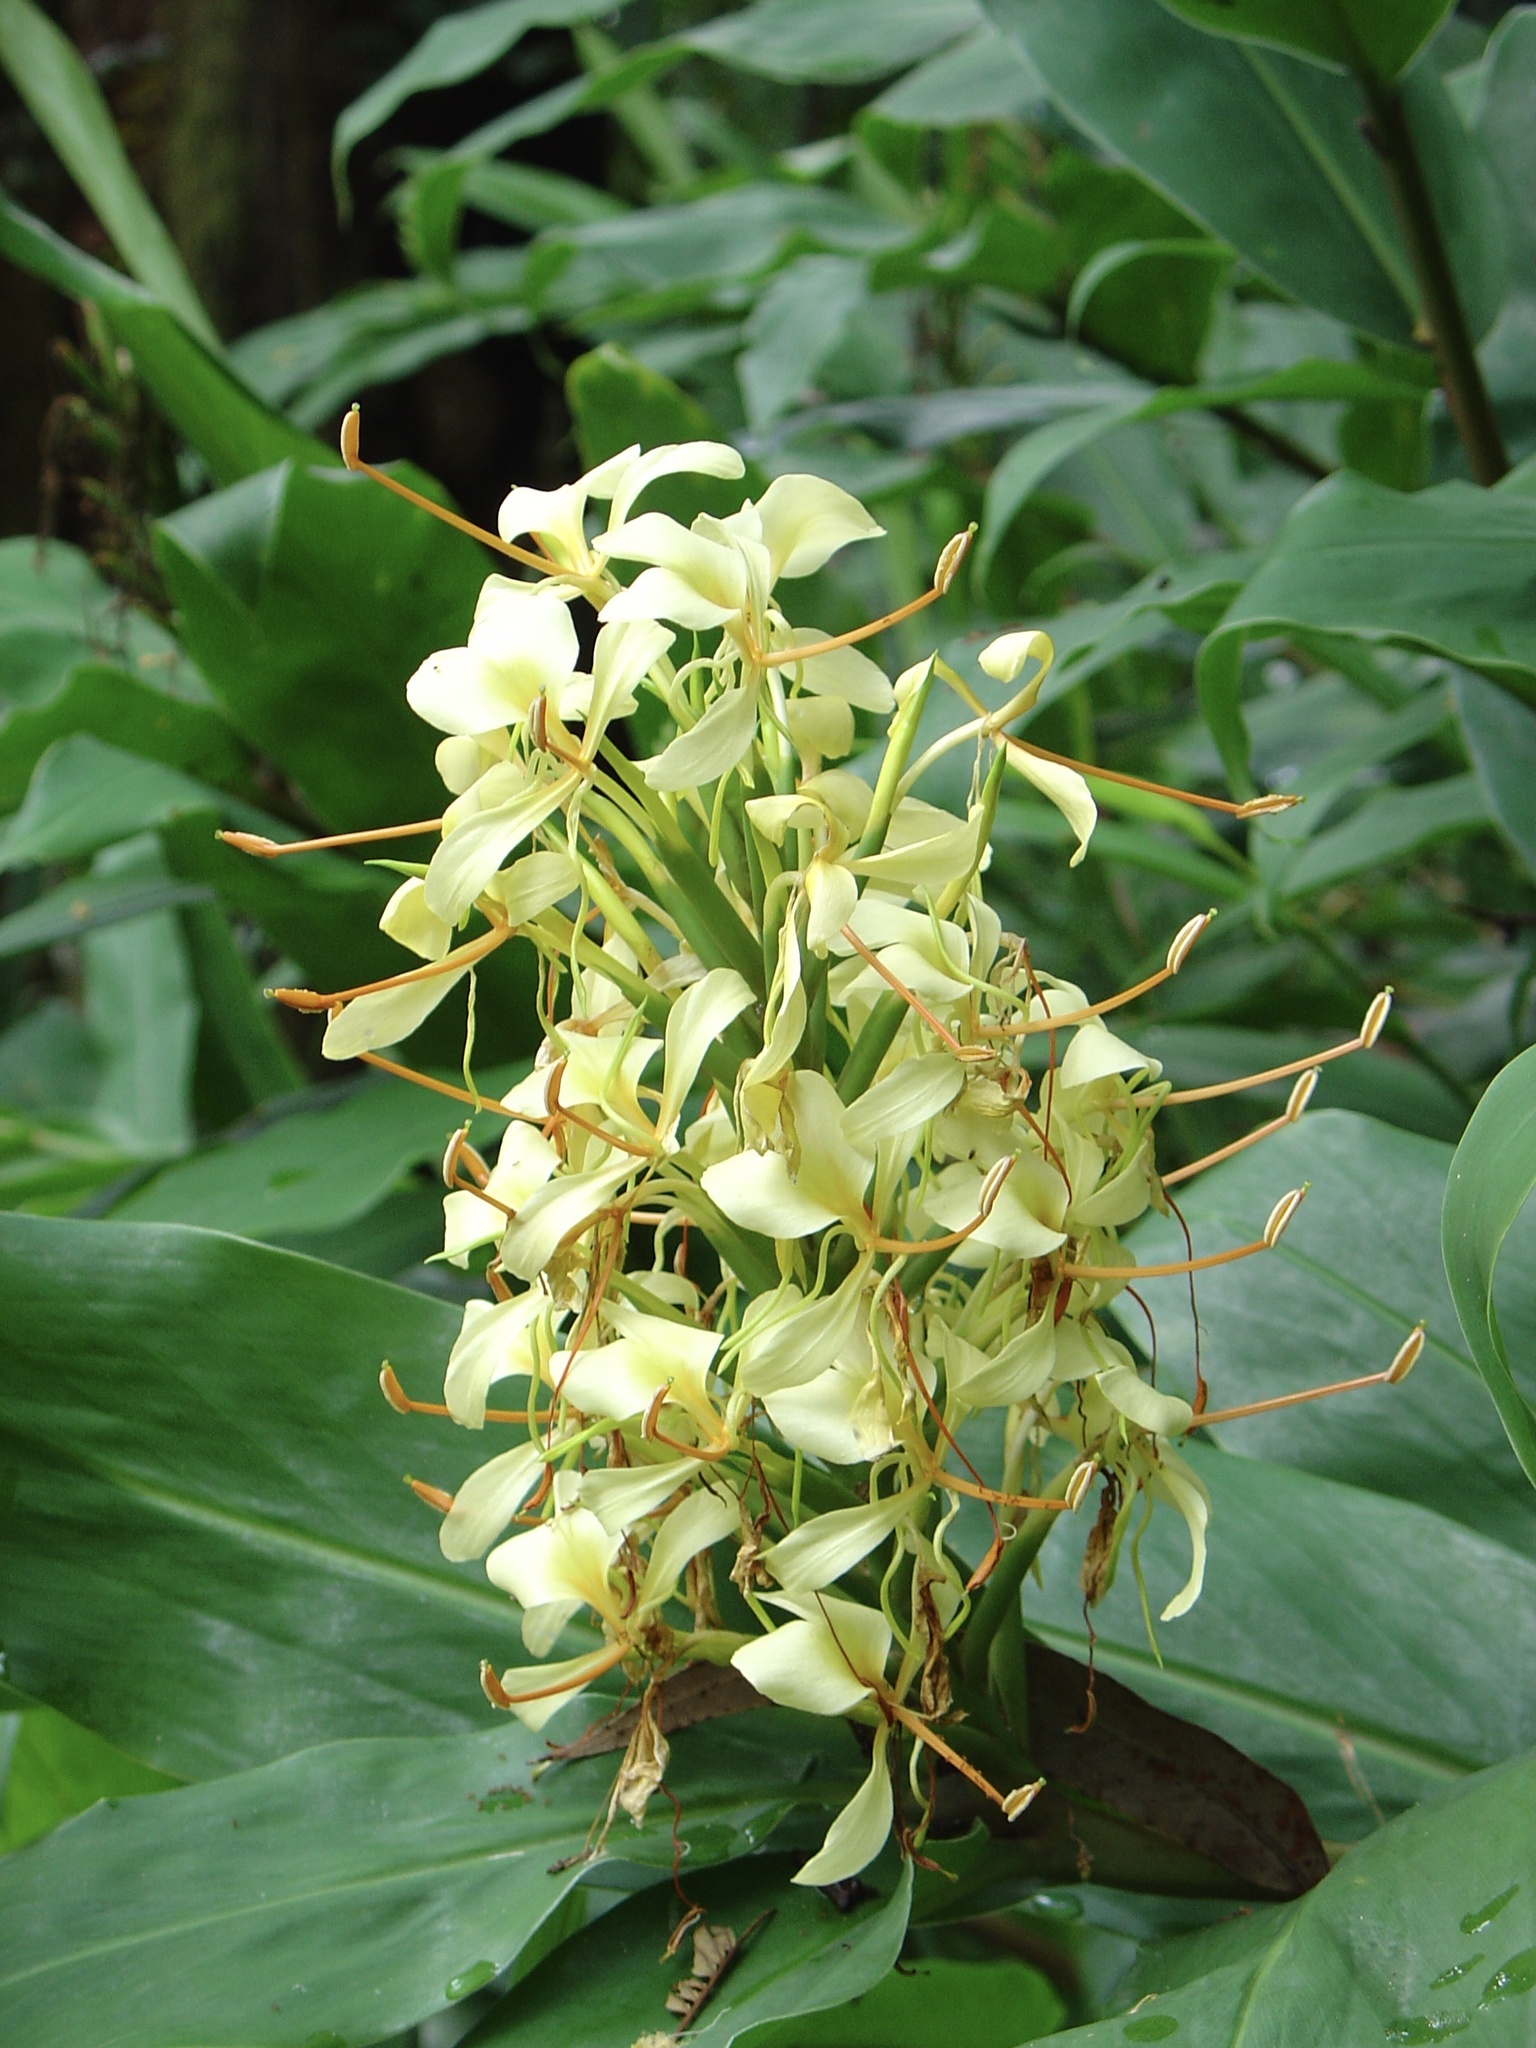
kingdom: Plantae
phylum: Tracheophyta
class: Liliopsida
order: Zingiberales
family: Zingiberaceae
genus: Hedychium
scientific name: Hedychium flavescens
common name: Yellow ginger
